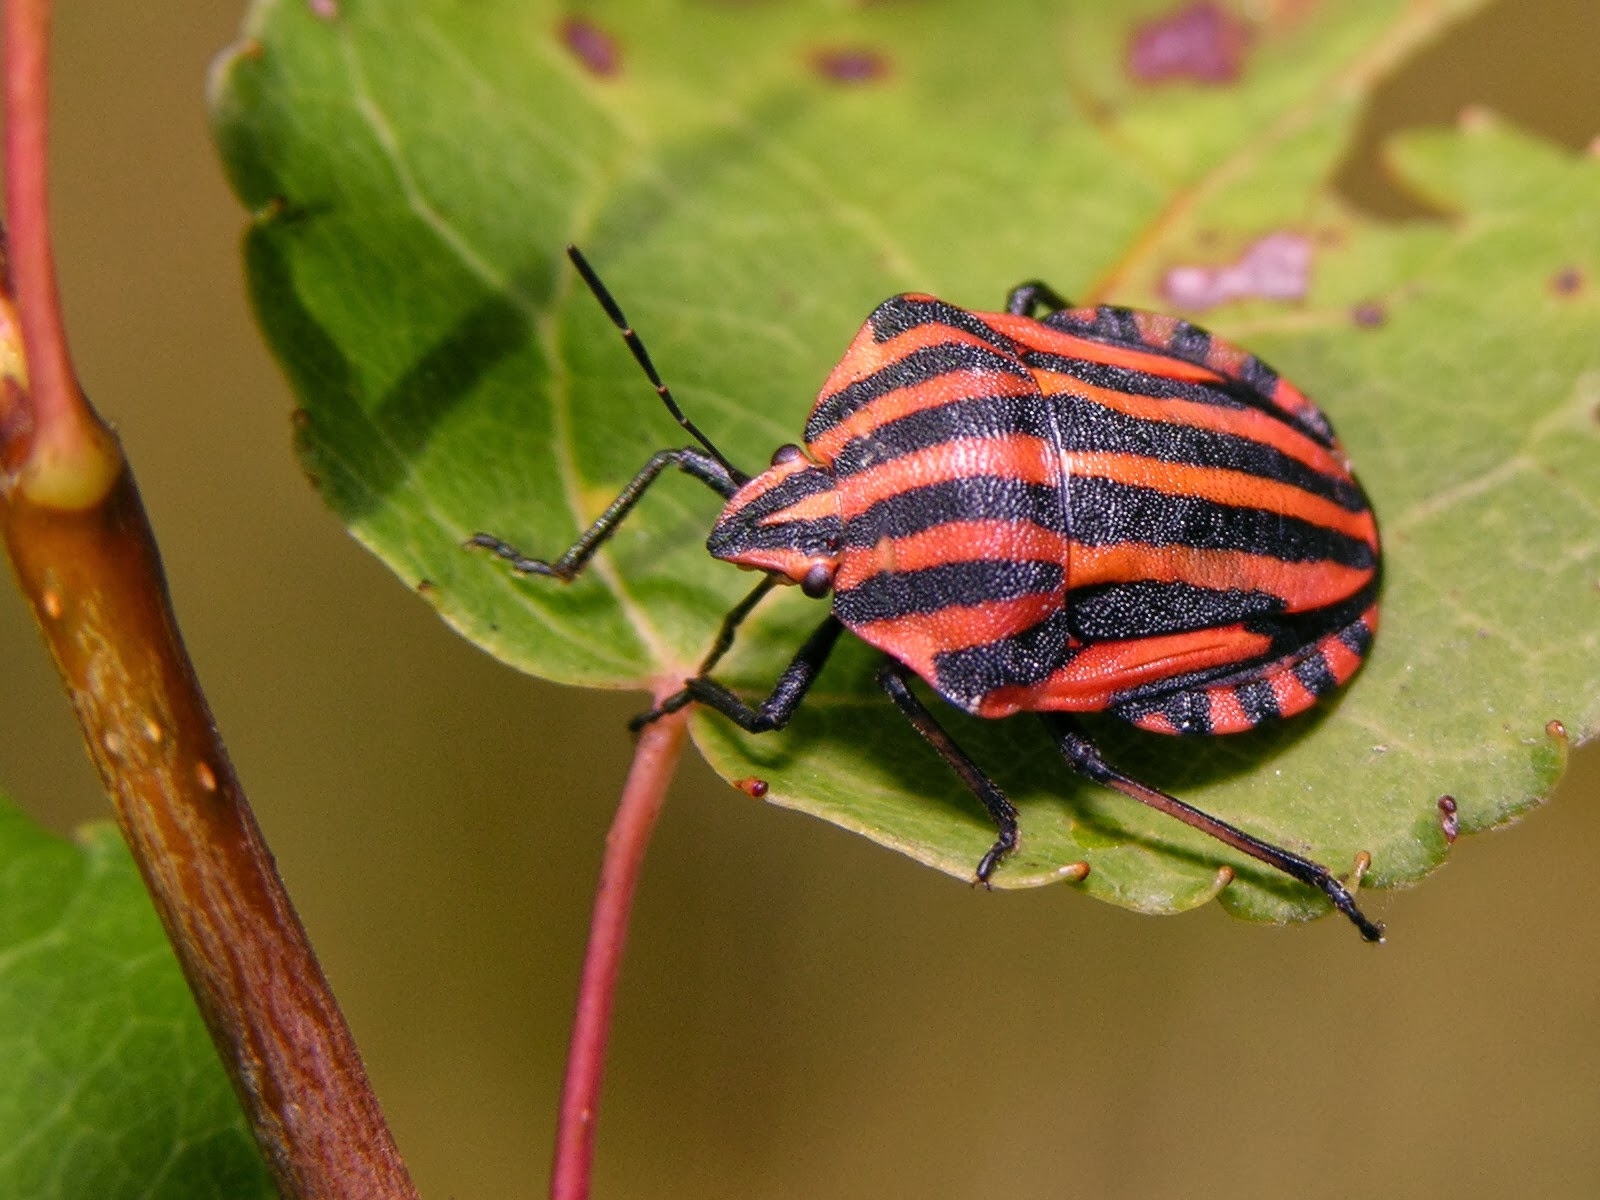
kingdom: Animalia
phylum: Arthropoda
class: Insecta
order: Hemiptera
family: Pentatomidae
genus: Graphosoma
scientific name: Graphosoma italicum
